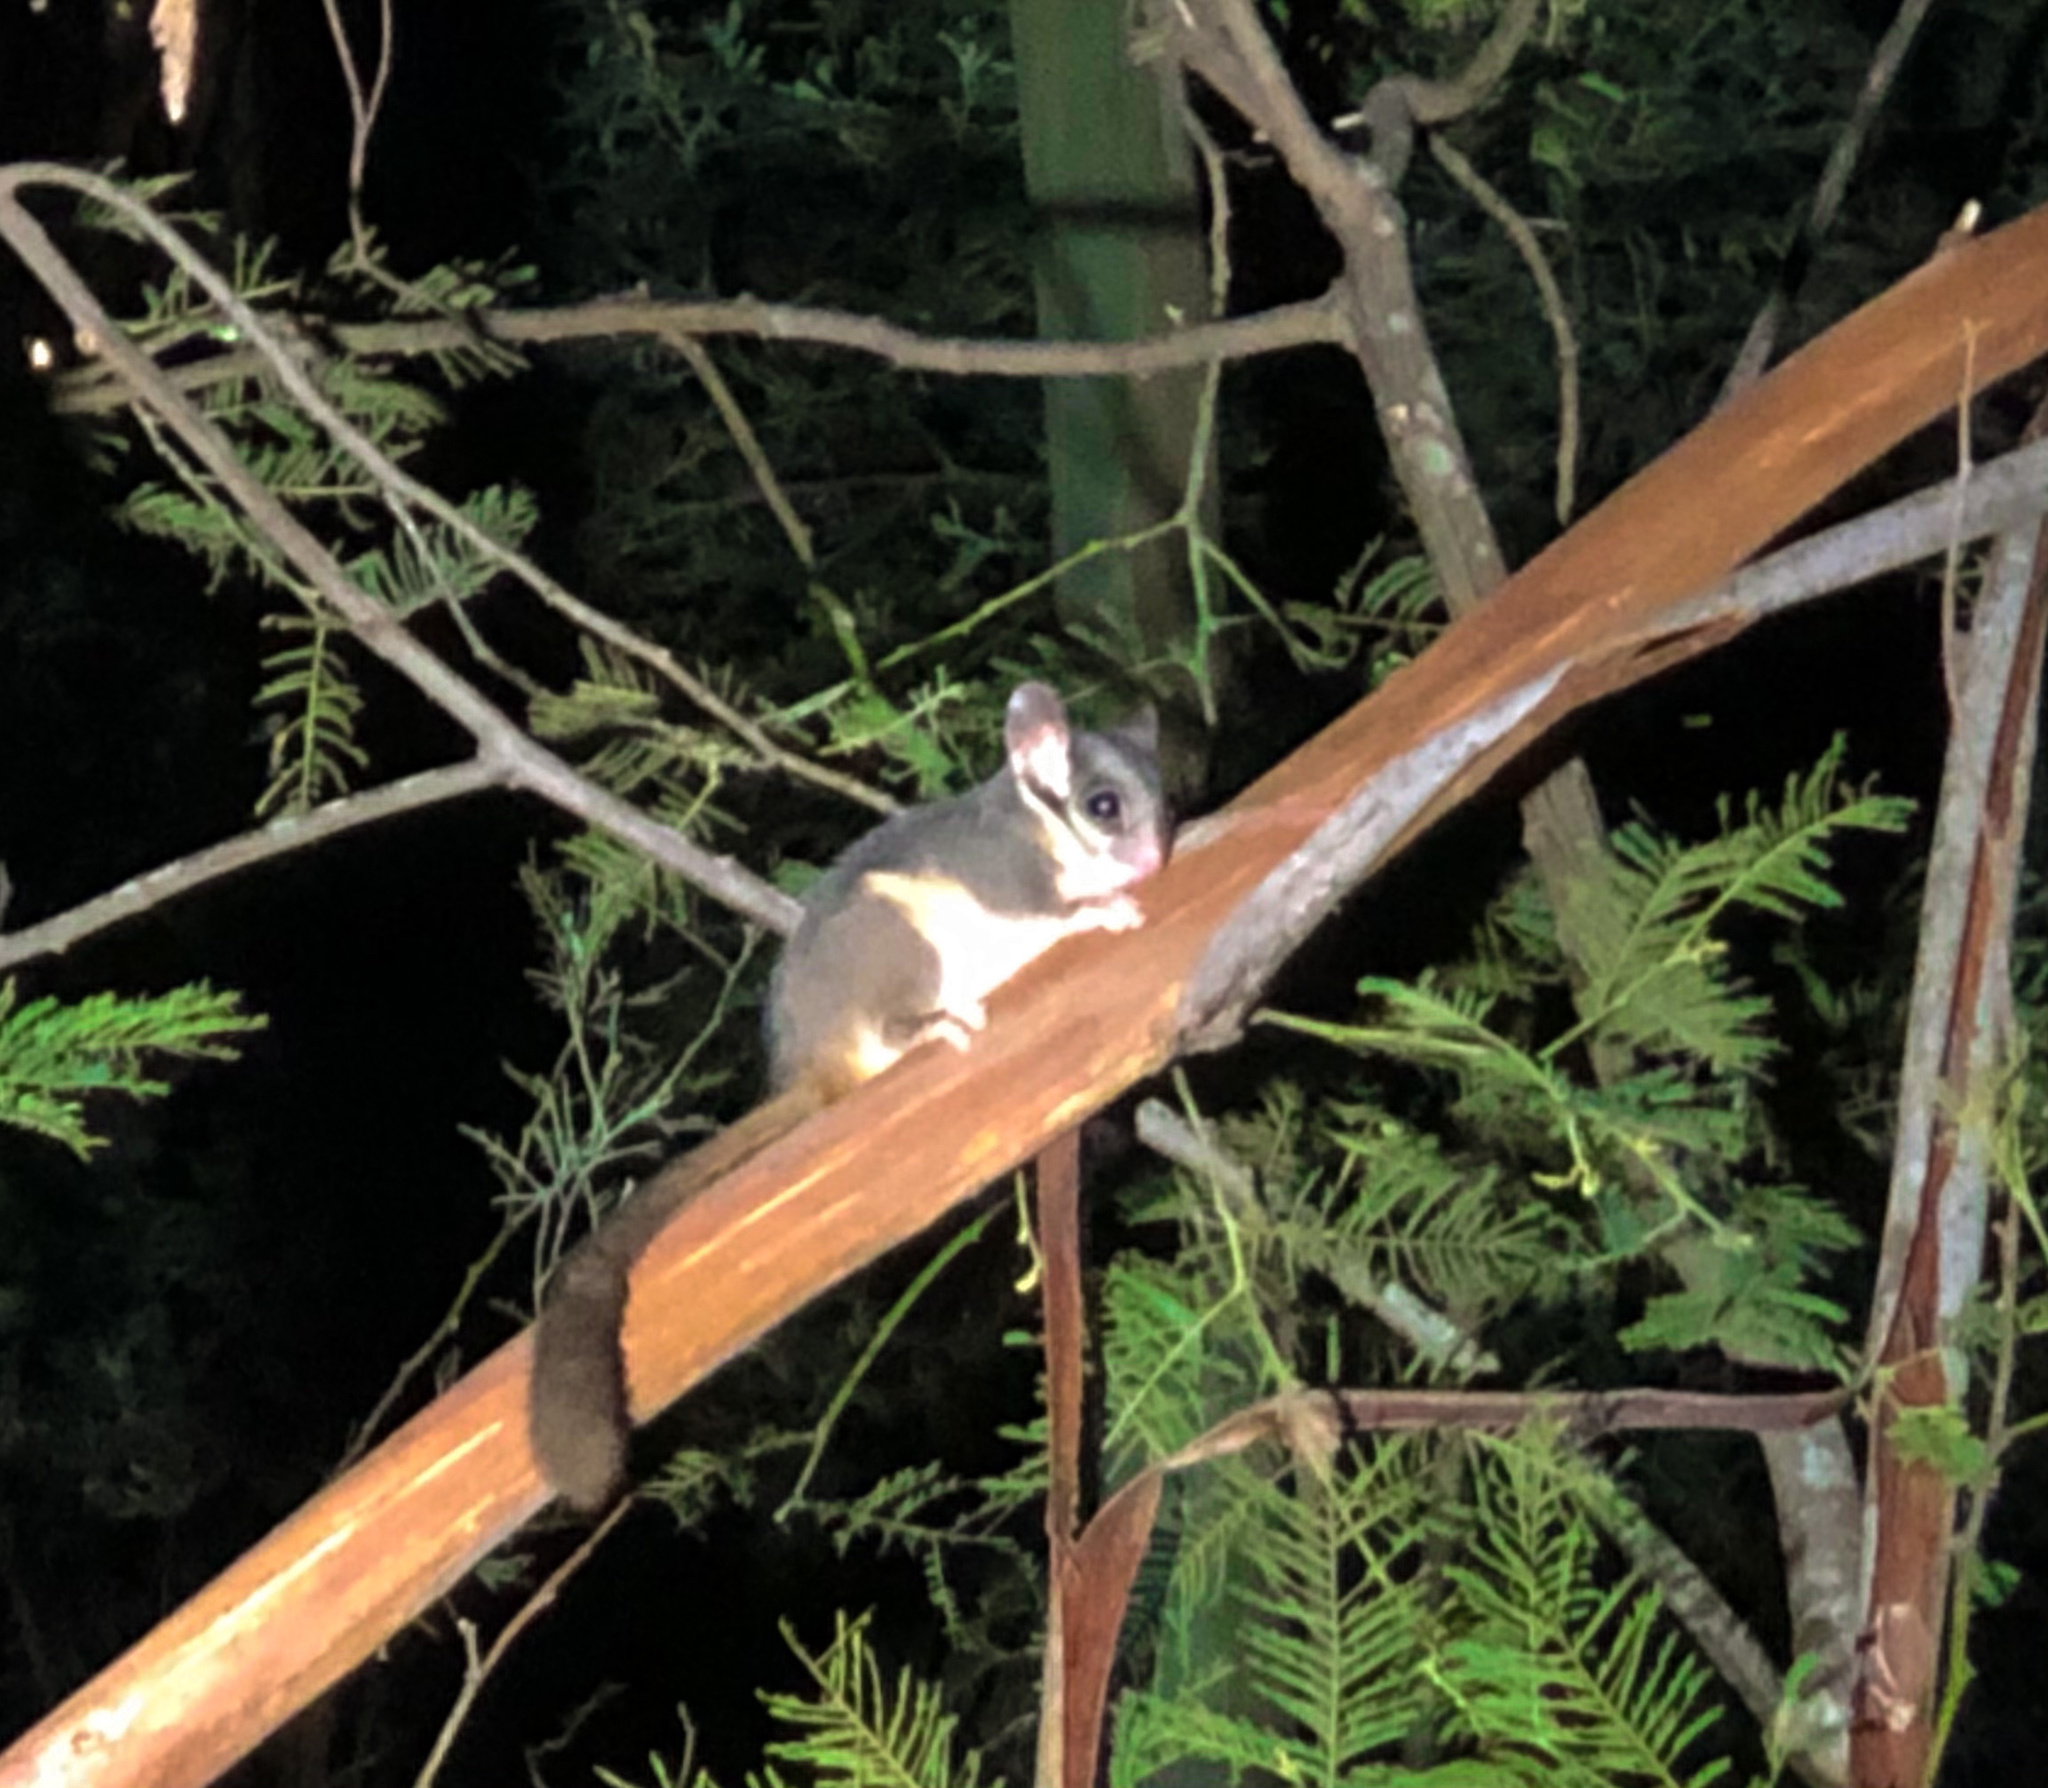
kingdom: Animalia
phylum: Chordata
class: Mammalia
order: Diprotodontia
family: Petauridae
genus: Gymnobelideus
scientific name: Gymnobelideus leadbeateri
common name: Leadbeater's possum
